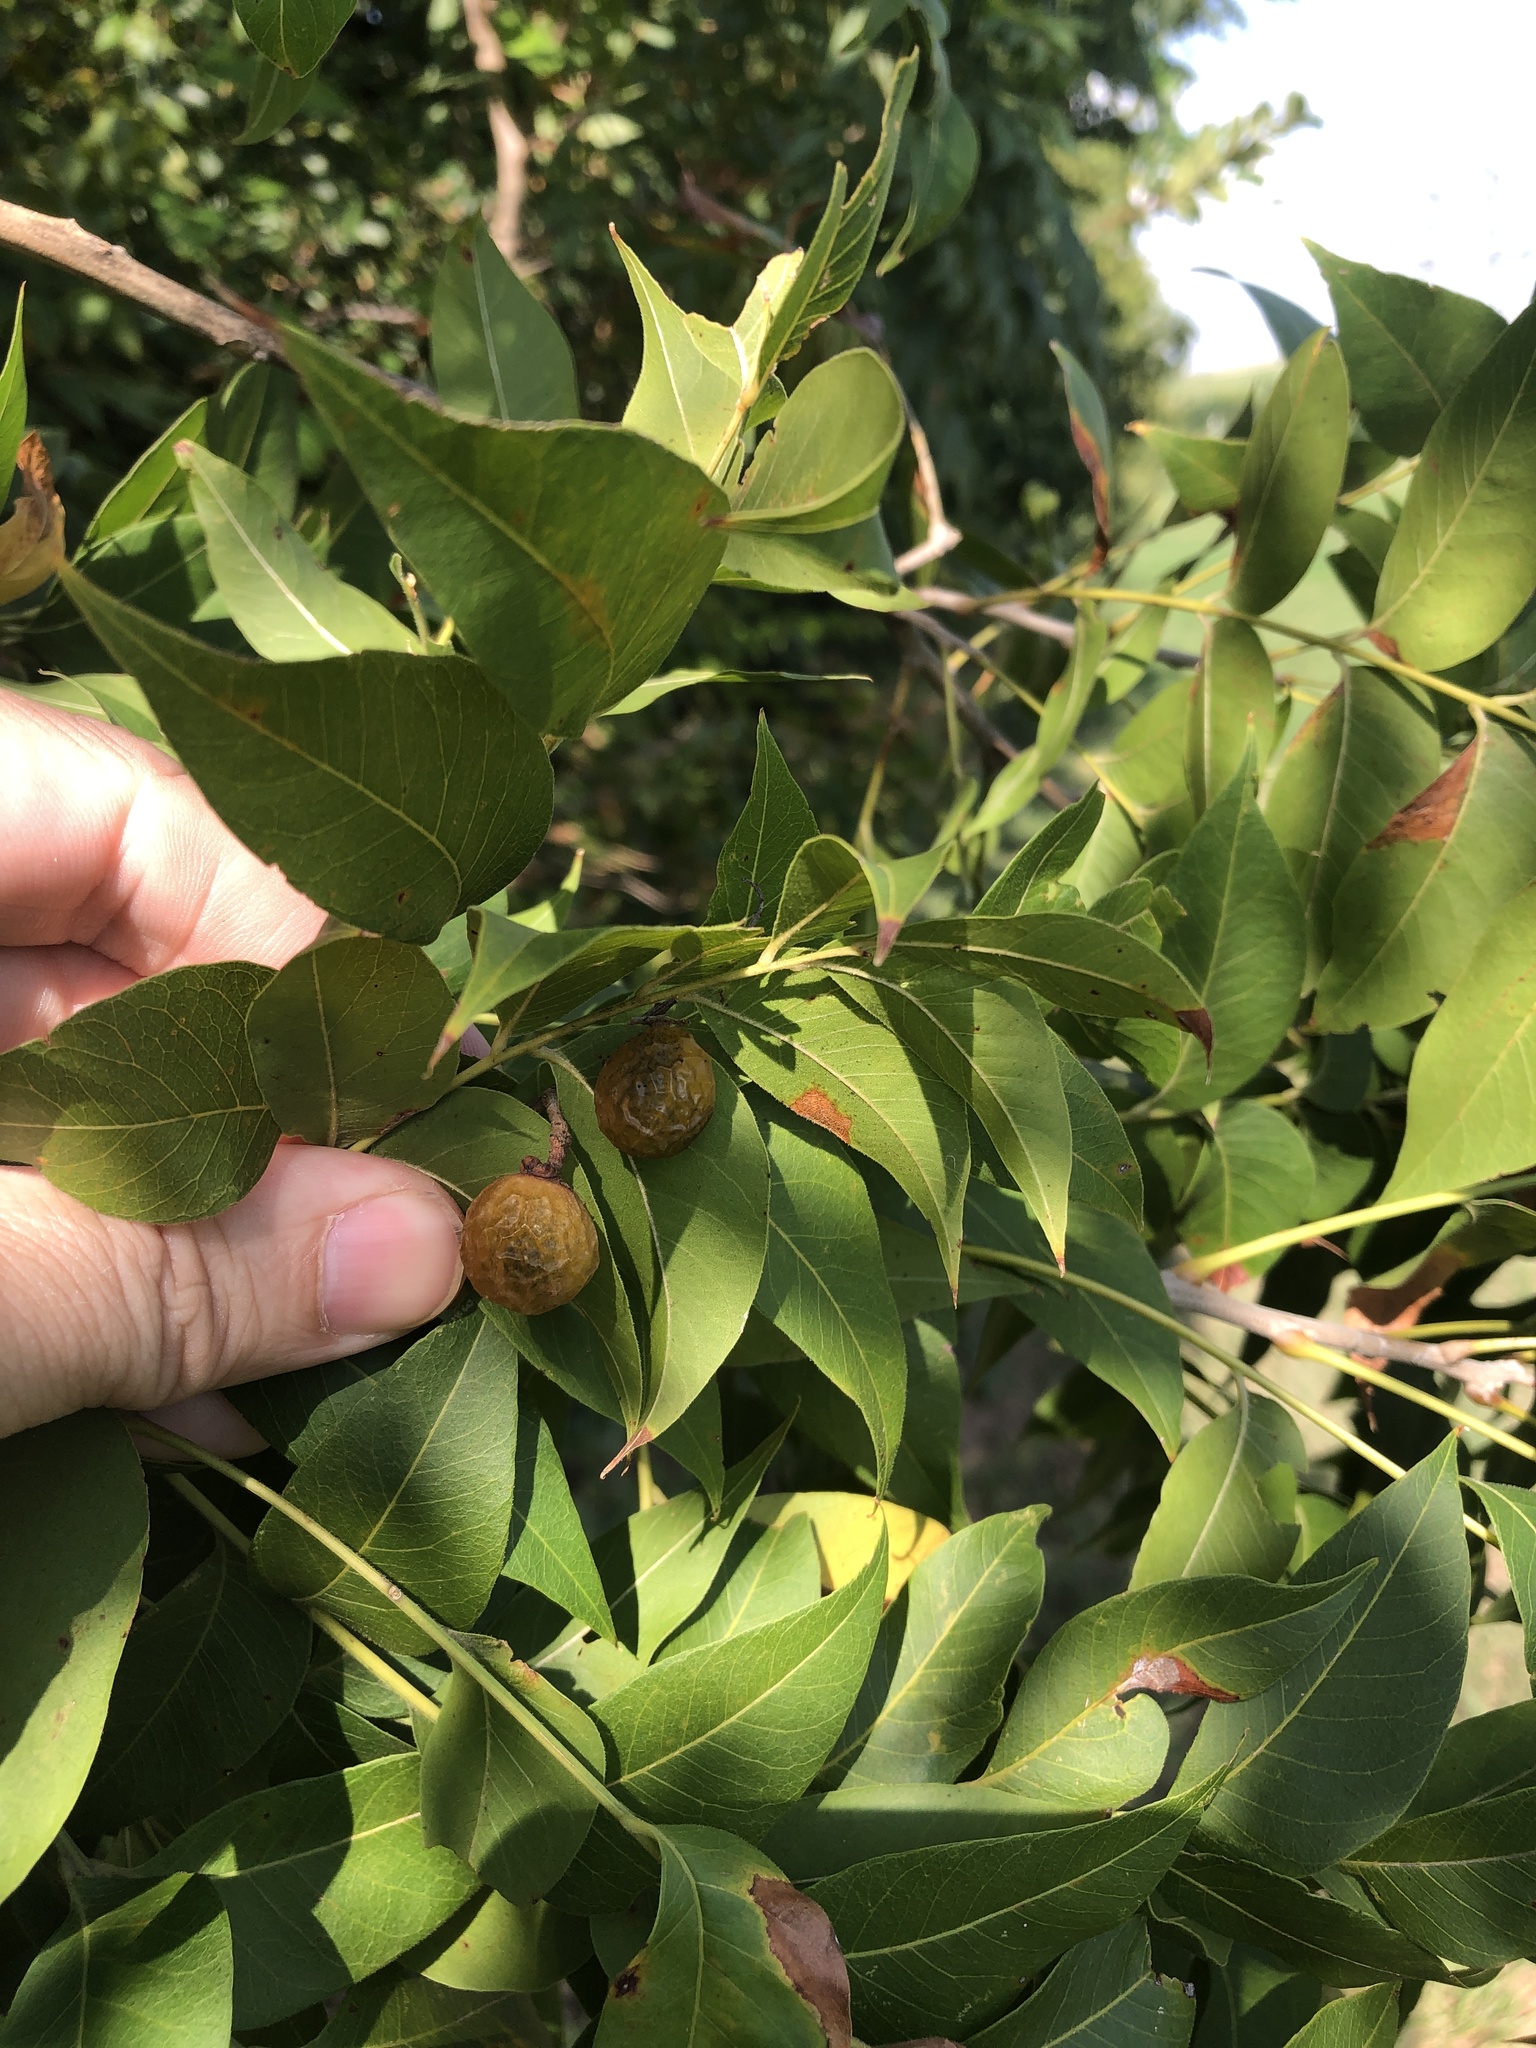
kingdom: Plantae
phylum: Tracheophyta
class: Magnoliopsida
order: Sapindales
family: Sapindaceae
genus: Sapindus
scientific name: Sapindus drummondii
